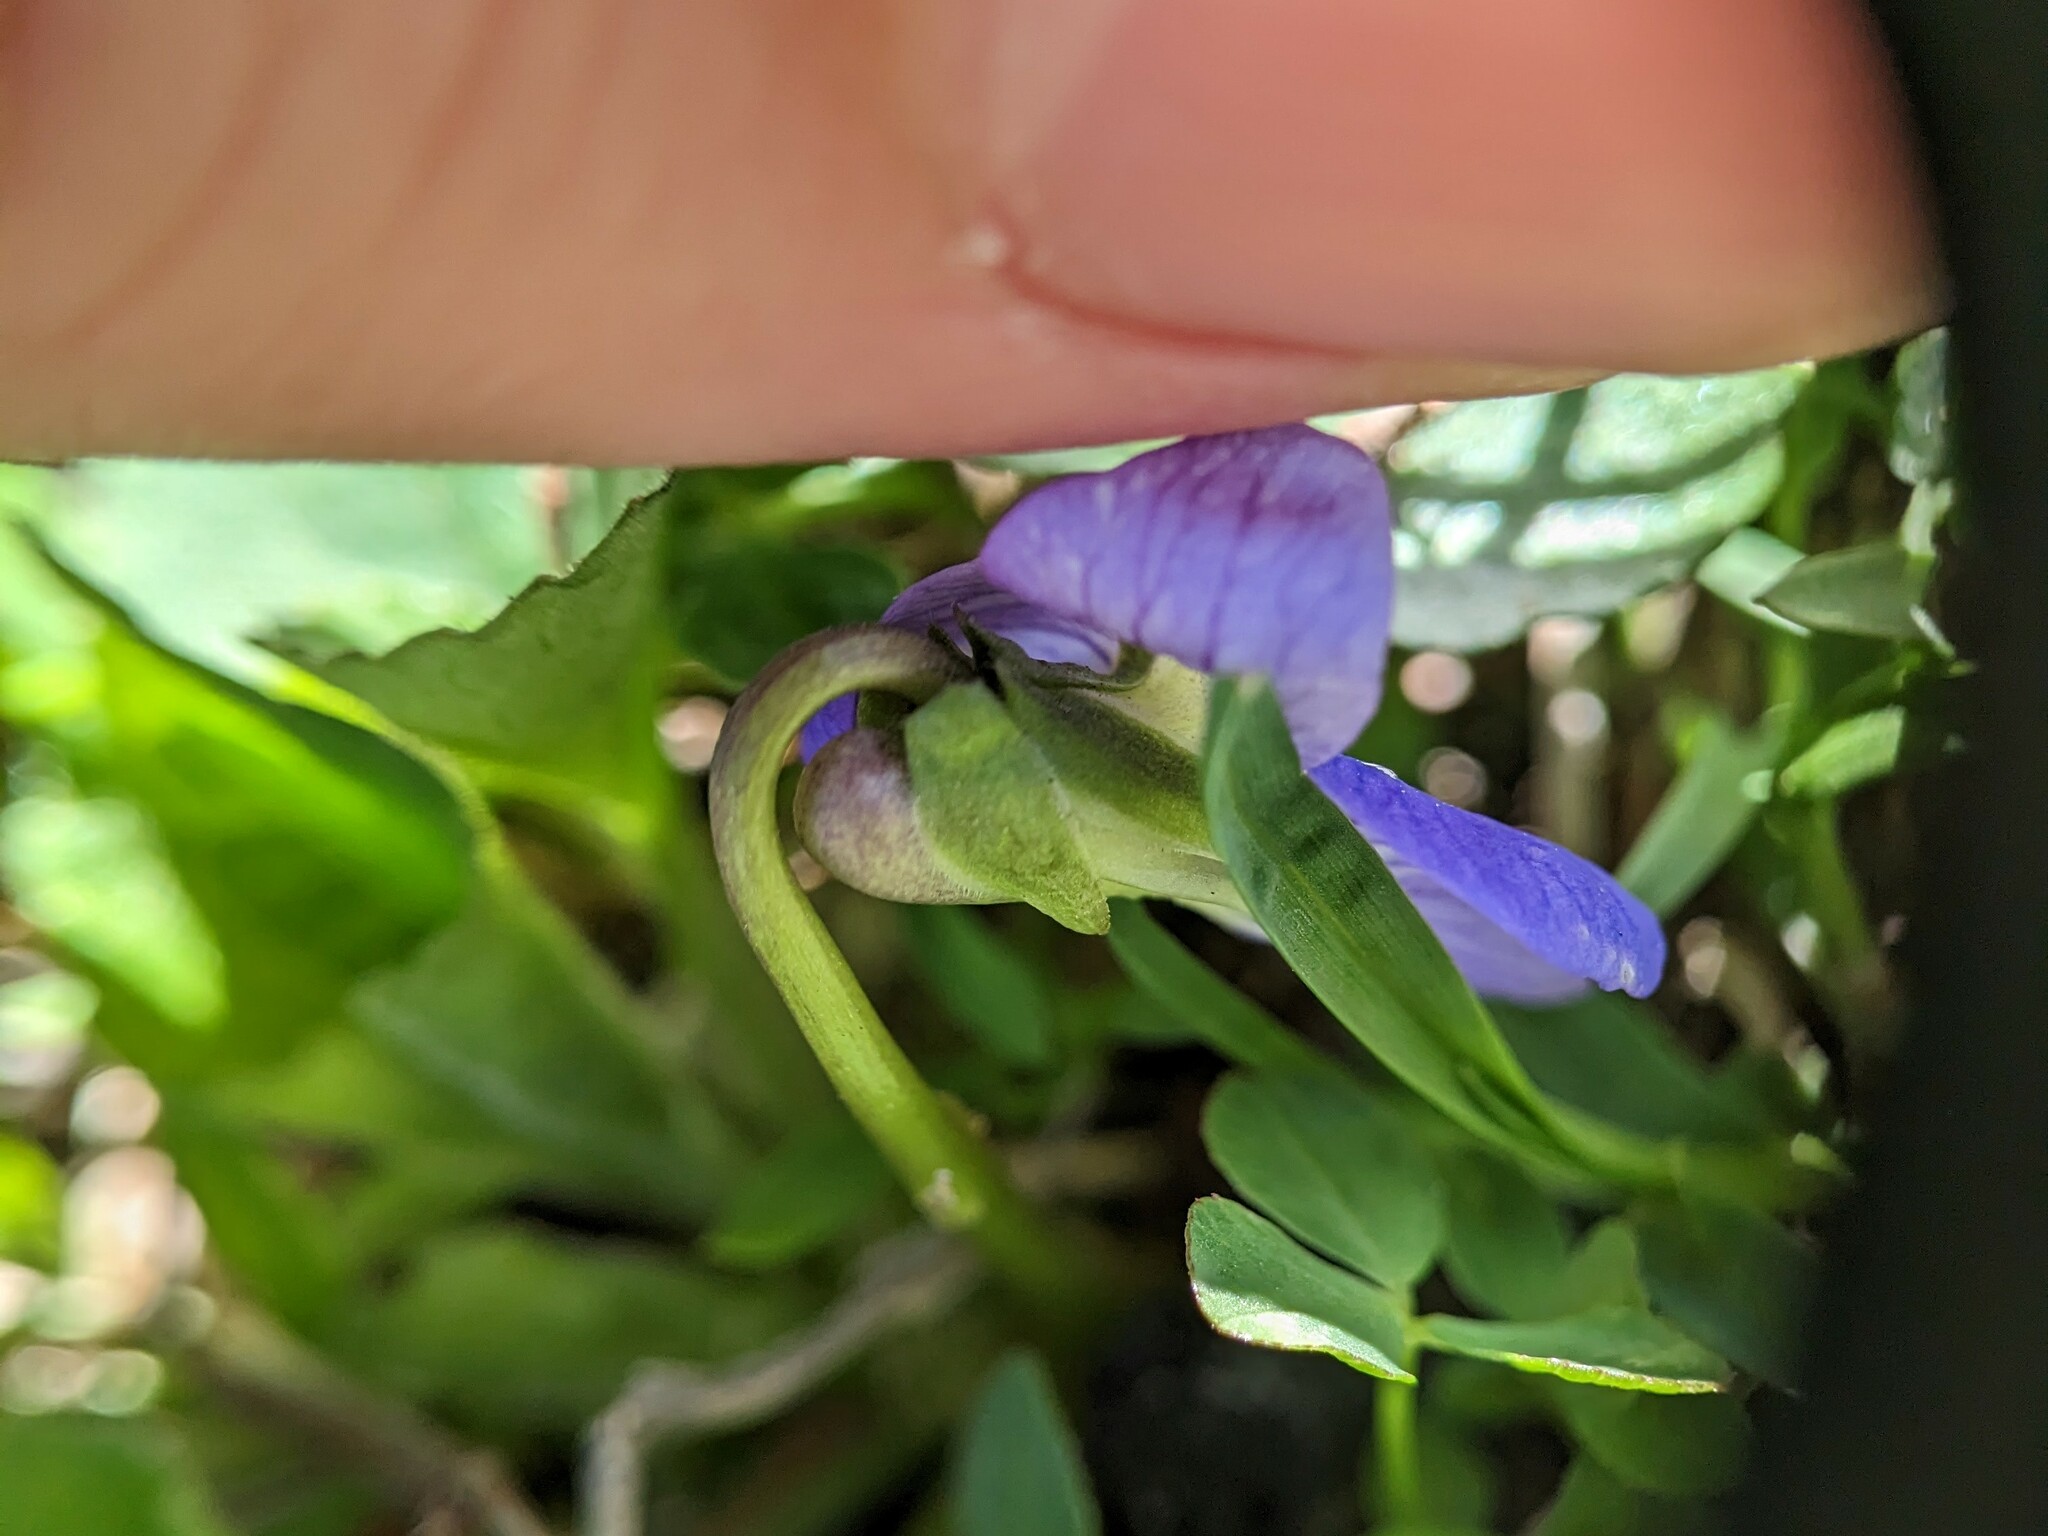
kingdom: Plantae
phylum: Tracheophyta
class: Magnoliopsida
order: Malpighiales
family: Violaceae
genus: Viola
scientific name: Viola sororia
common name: Dooryard violet
